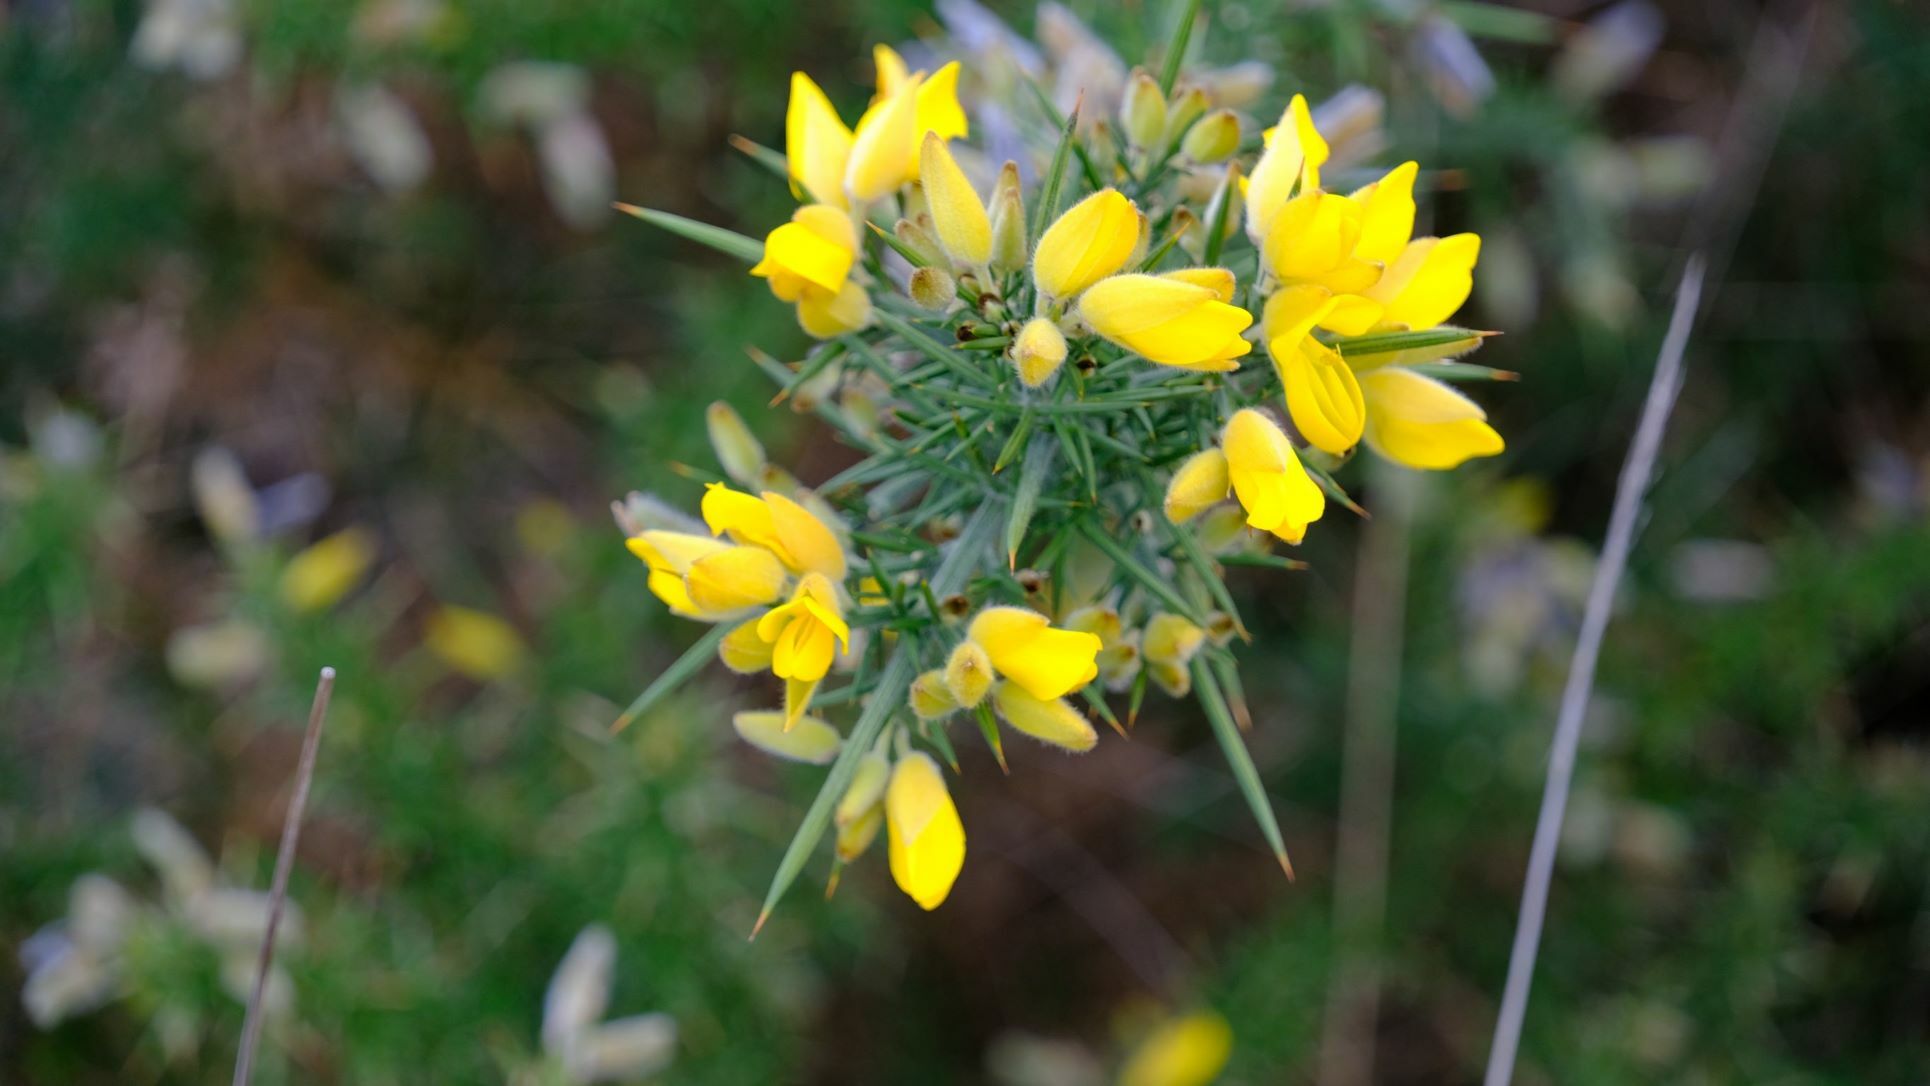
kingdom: Plantae
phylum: Tracheophyta
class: Magnoliopsida
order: Fabales
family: Fabaceae
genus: Ulex
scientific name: Ulex europaeus
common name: Common gorse
